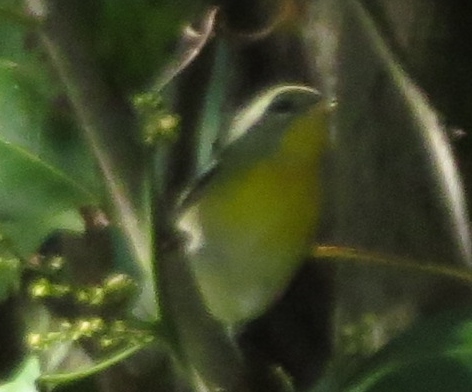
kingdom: Animalia
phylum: Chordata
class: Aves
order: Passeriformes
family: Parulidae
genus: Setophaga
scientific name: Setophaga americana
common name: Northern parula
